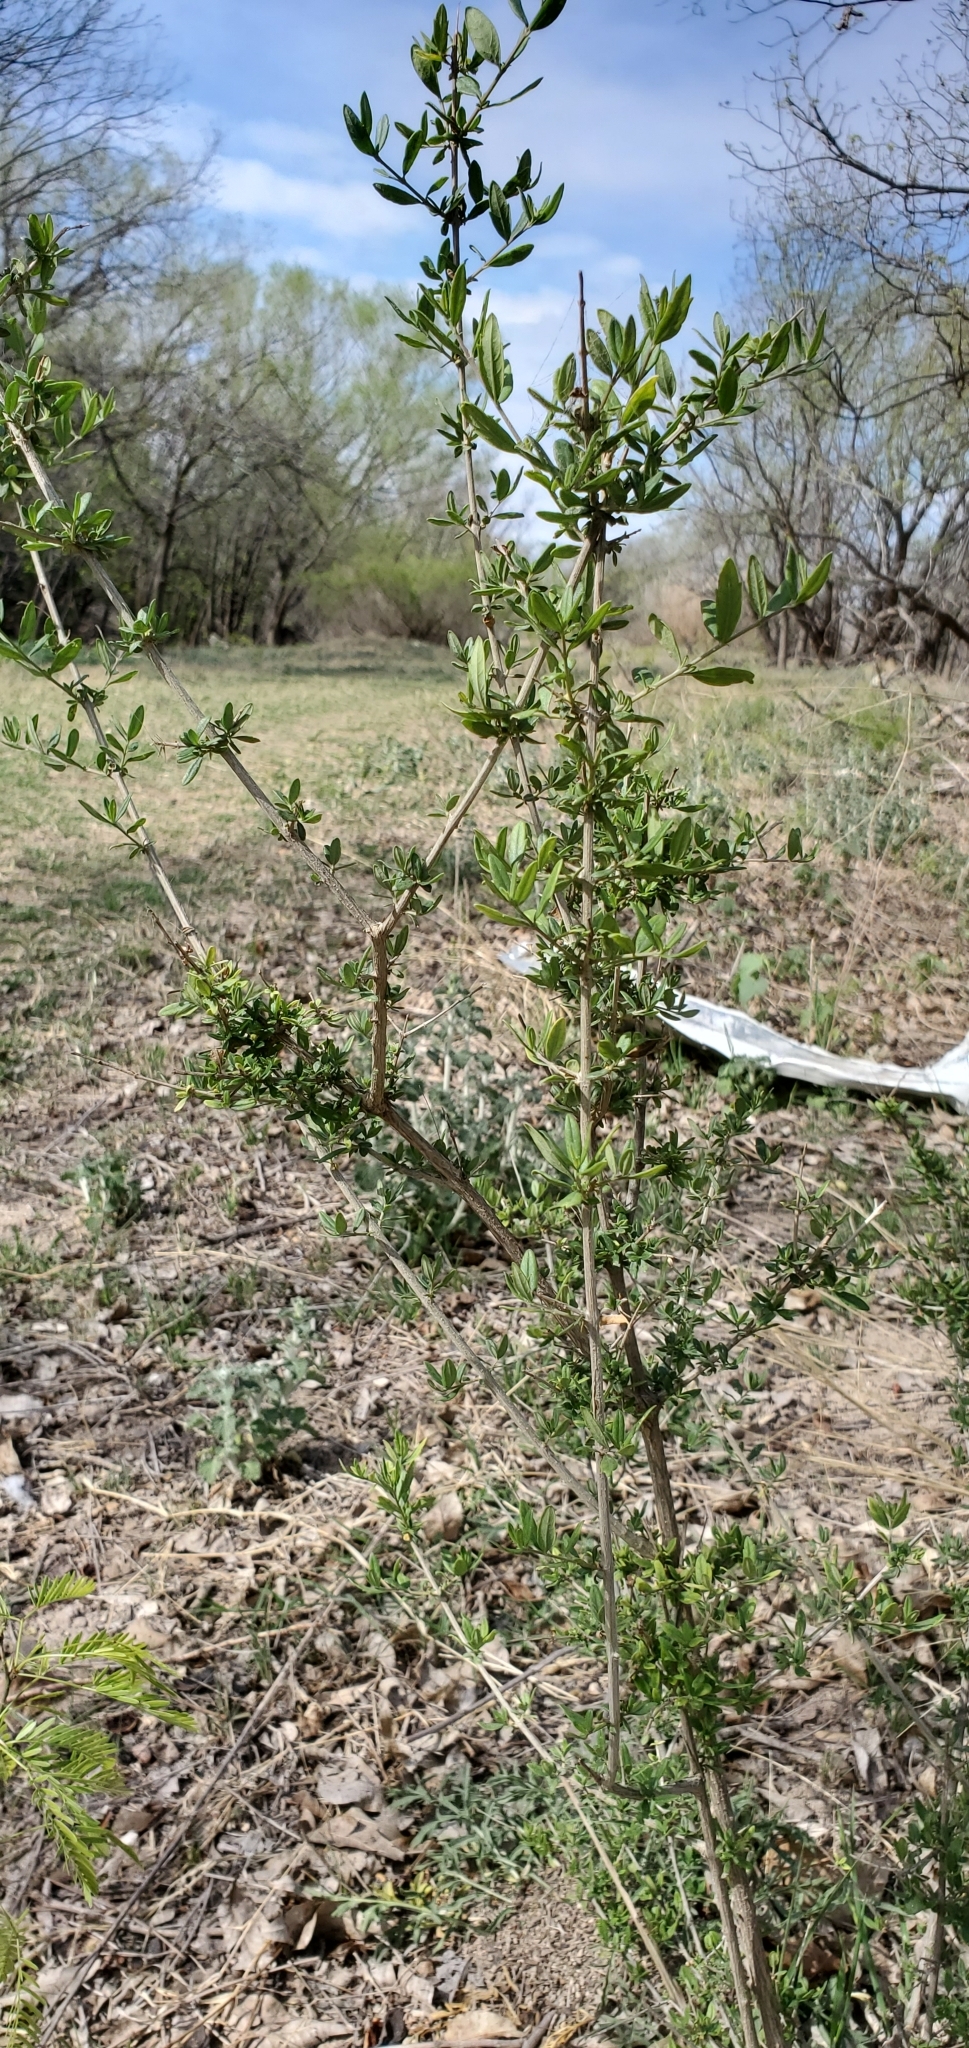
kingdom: Plantae
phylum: Tracheophyta
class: Magnoliopsida
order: Lamiales
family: Verbenaceae
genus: Aloysia
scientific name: Aloysia gratissima
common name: Common bee-brush
